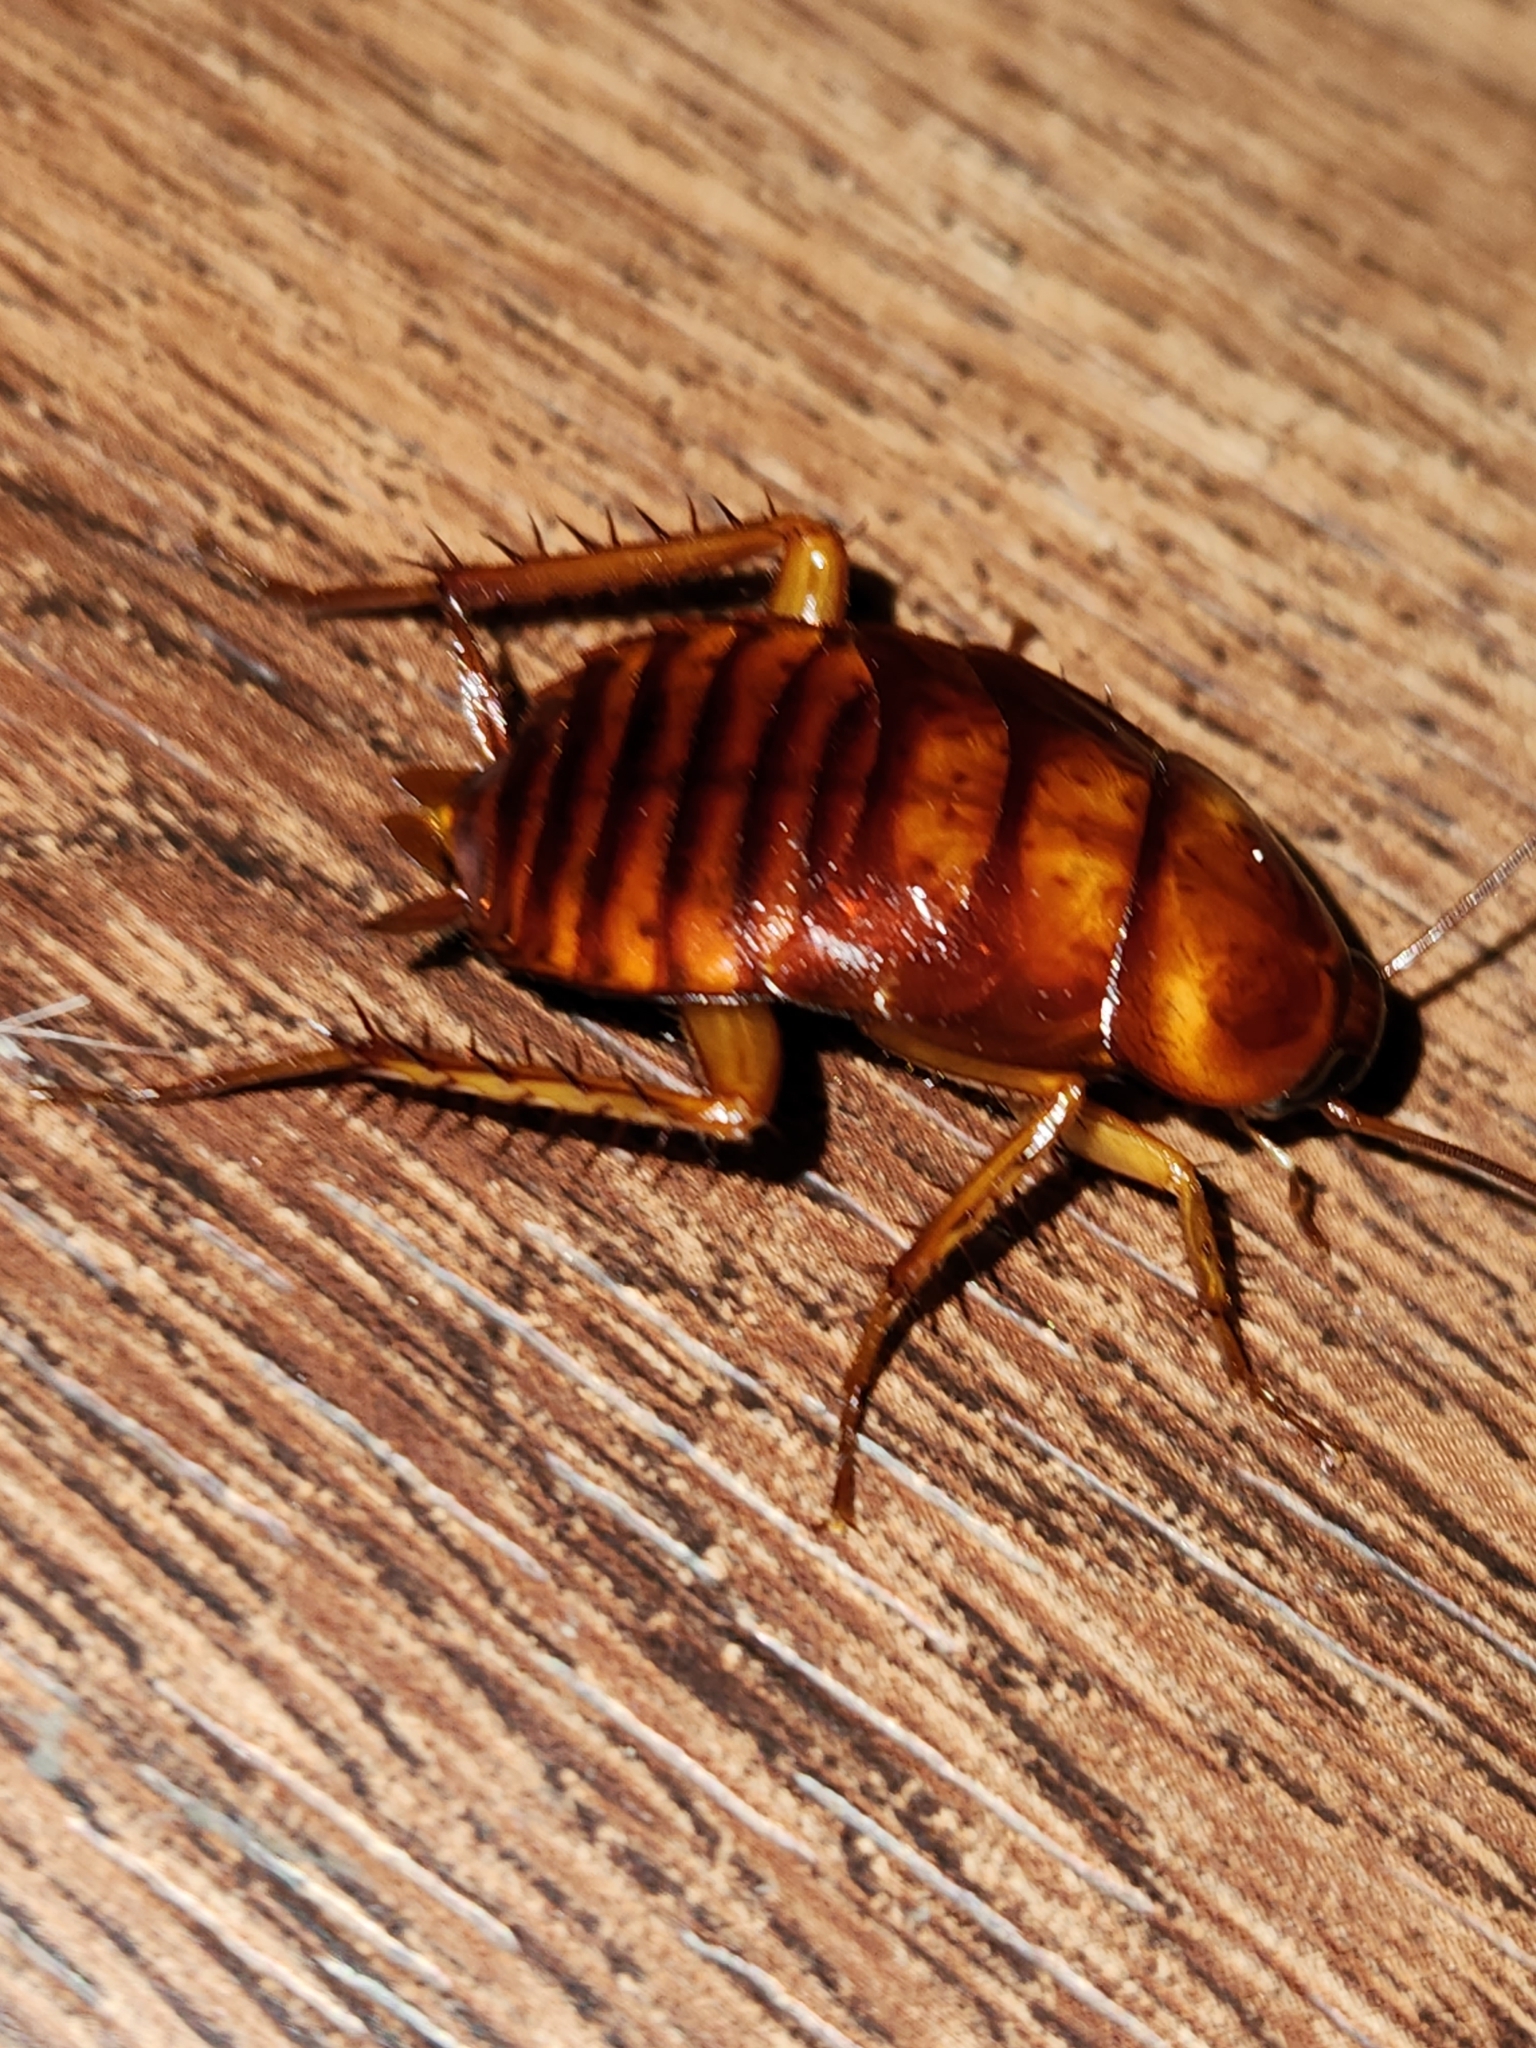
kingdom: Animalia
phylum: Arthropoda
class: Insecta
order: Blattodea
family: Blattidae
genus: Periplaneta
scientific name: Periplaneta americana
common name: American cockroach
